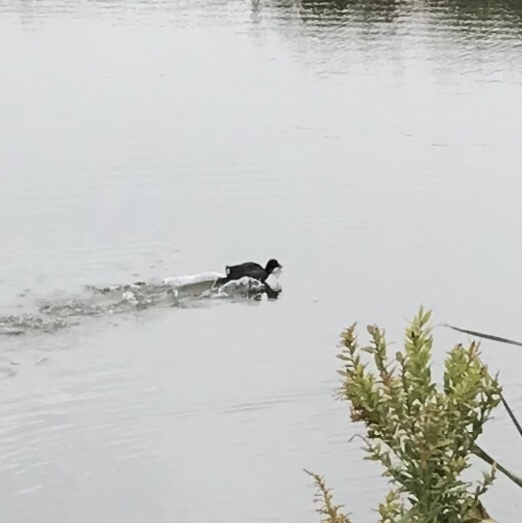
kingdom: Animalia
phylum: Chordata
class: Aves
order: Gruiformes
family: Rallidae
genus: Fulica
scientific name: Fulica americana
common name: American coot
